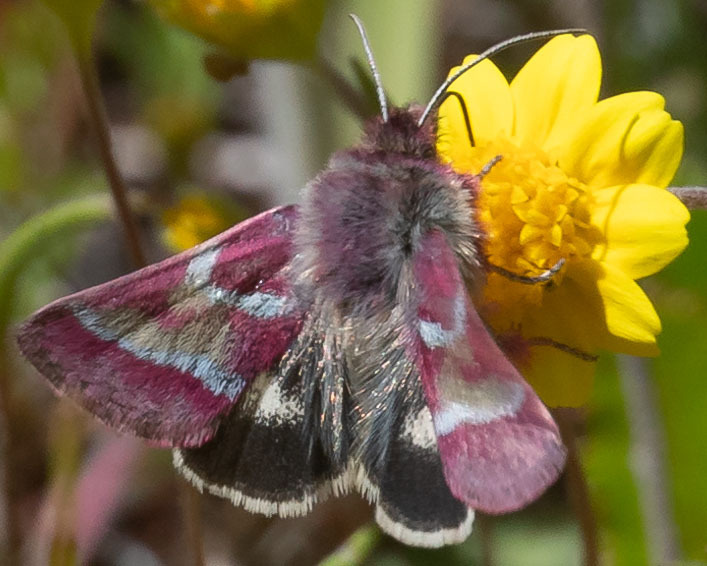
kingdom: Animalia
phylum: Arthropoda
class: Insecta
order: Lepidoptera
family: Noctuidae
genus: Schinia
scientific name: Schinia pulchripennis
